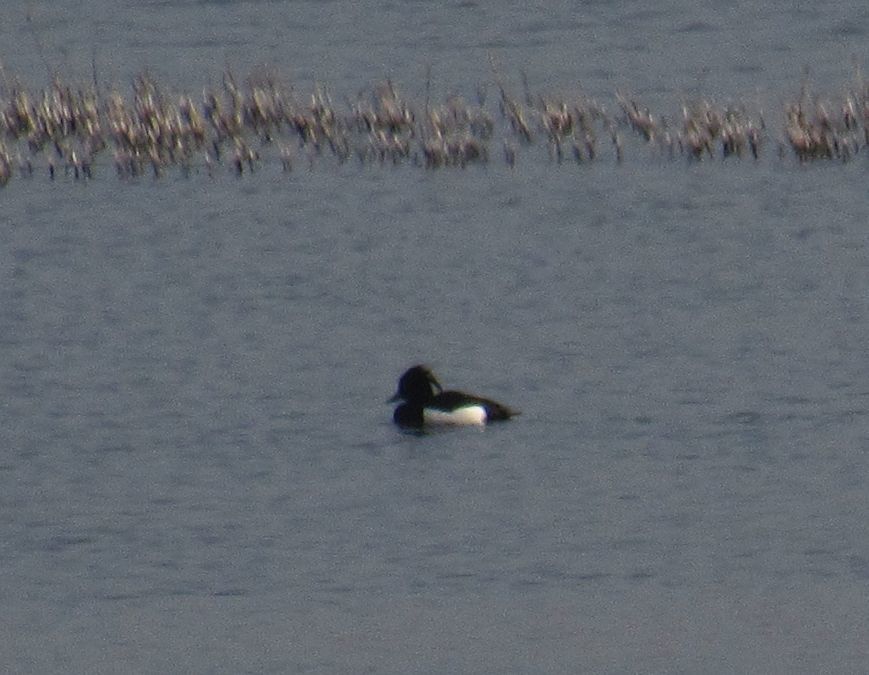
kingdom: Animalia
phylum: Chordata
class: Aves
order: Anseriformes
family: Anatidae
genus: Aythya
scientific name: Aythya fuligula
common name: Tufted duck
